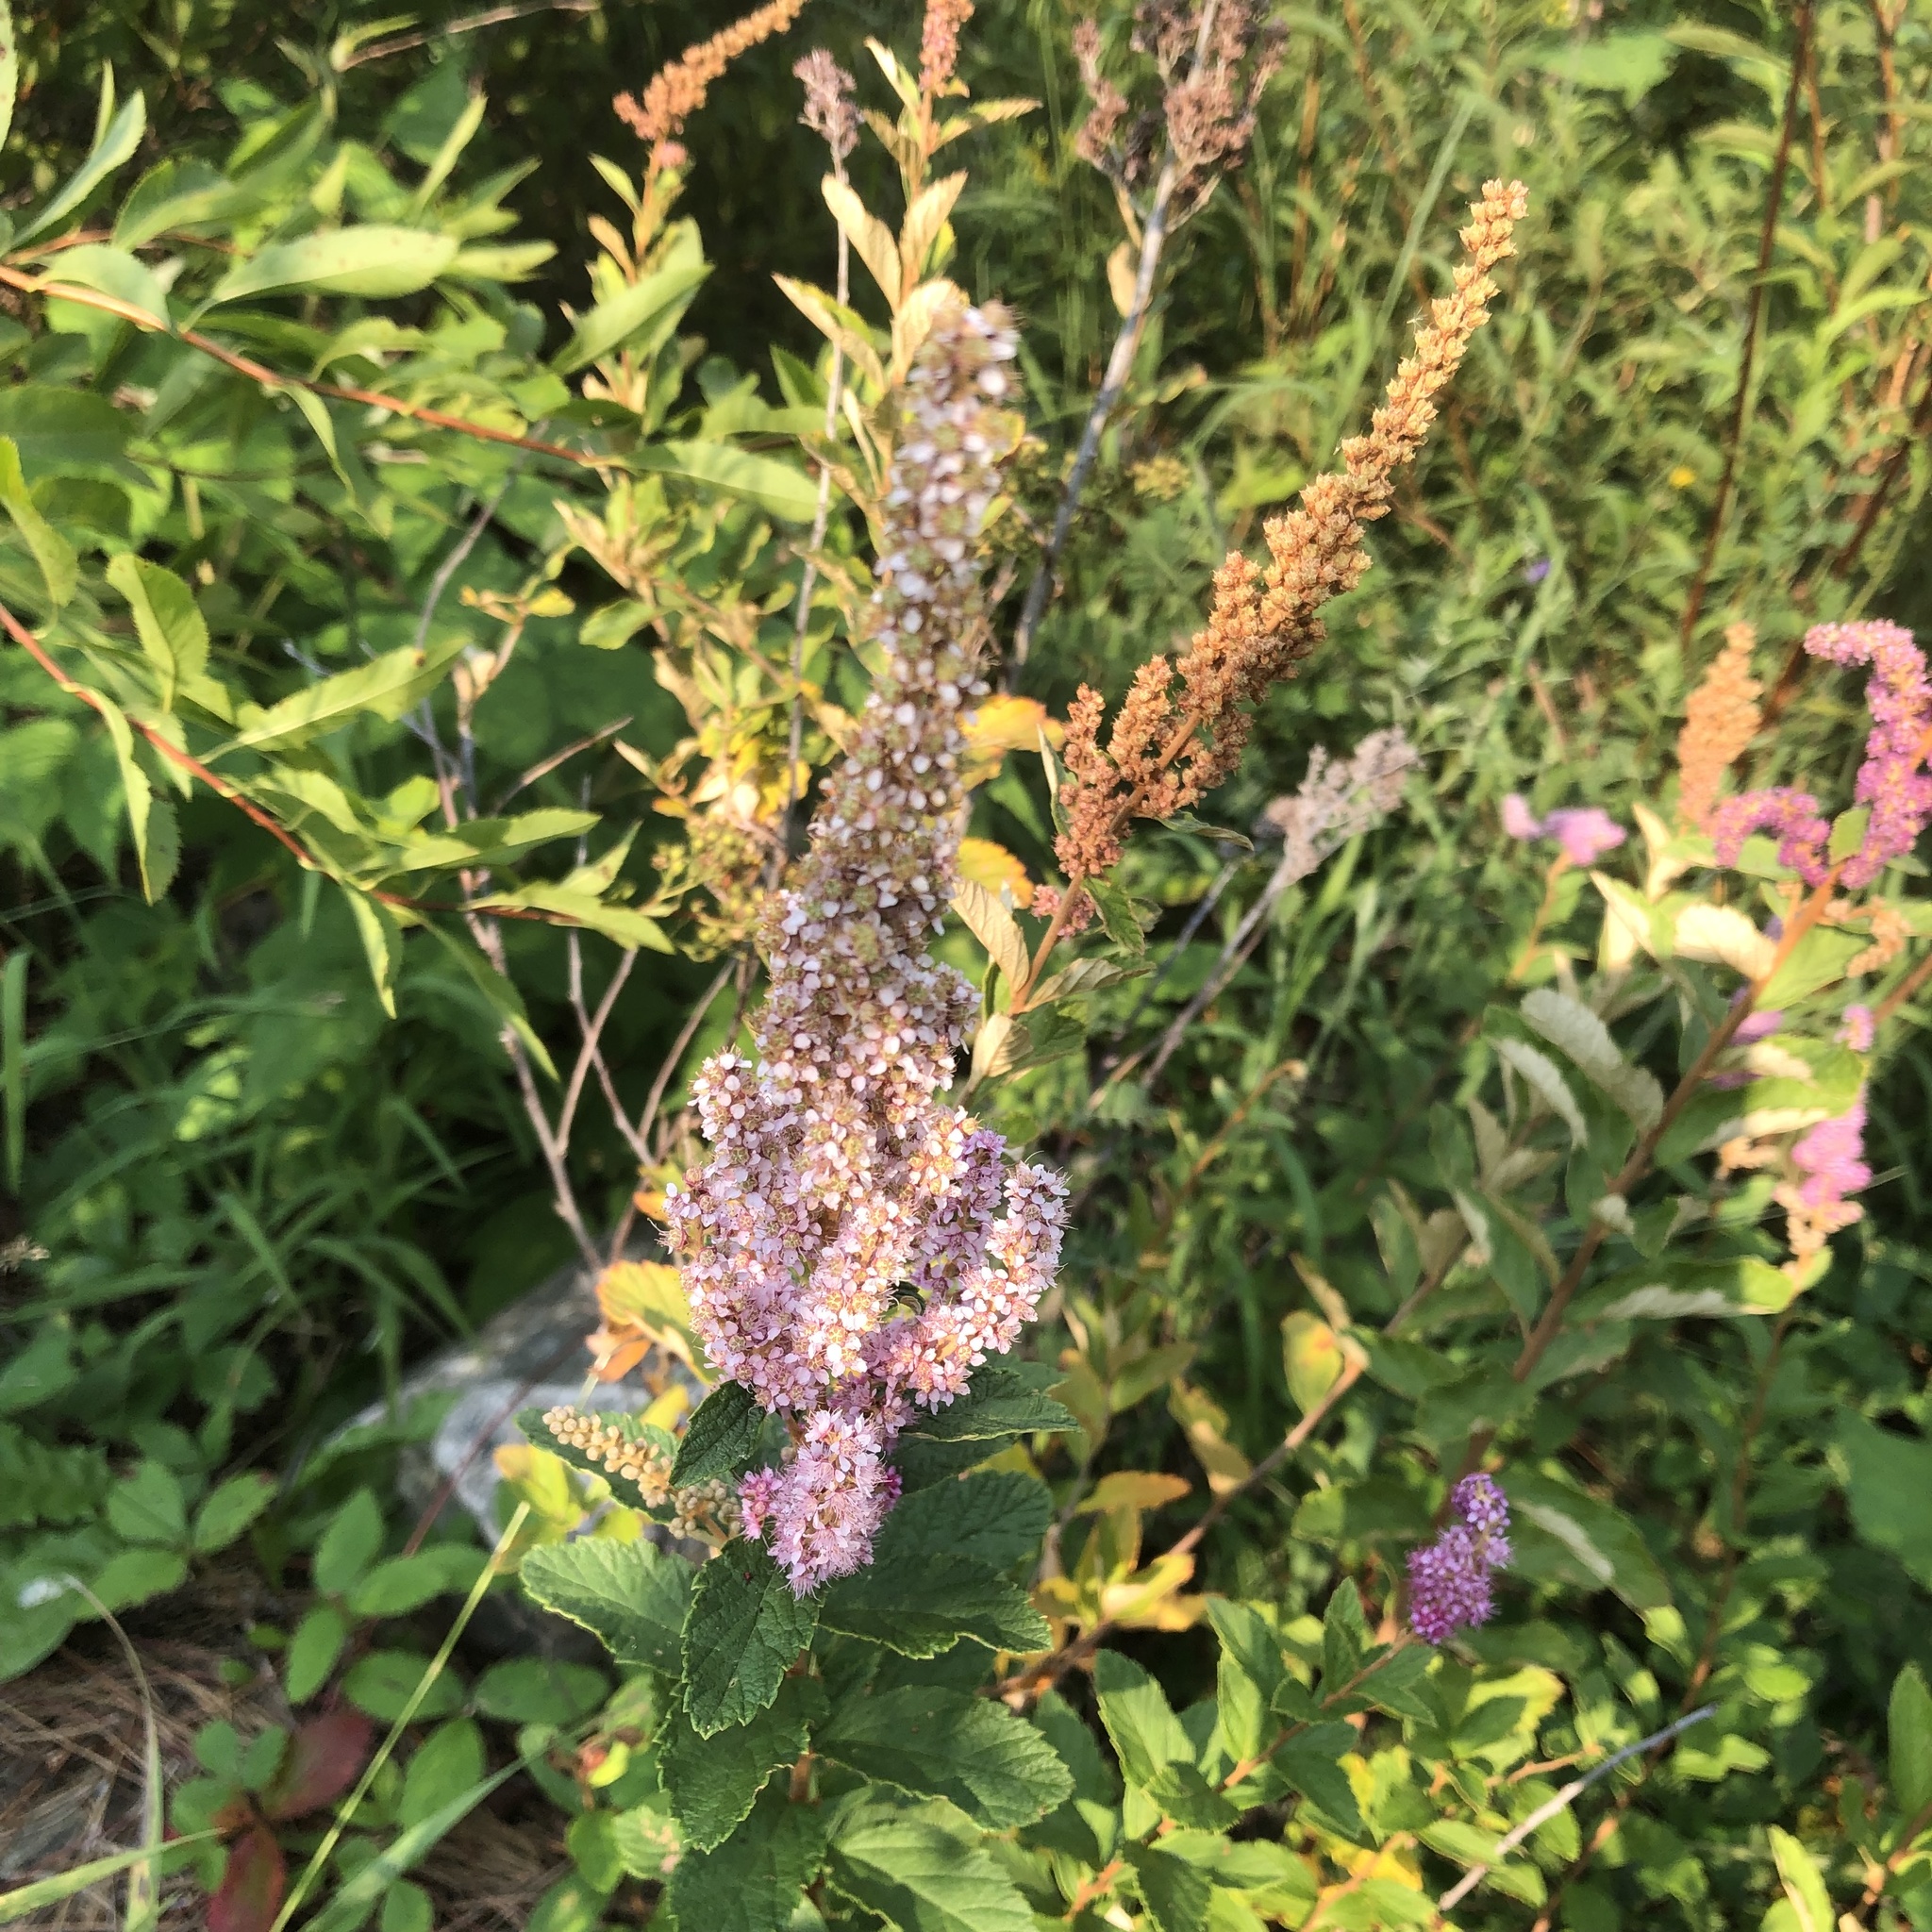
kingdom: Plantae
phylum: Tracheophyta
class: Magnoliopsida
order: Rosales
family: Rosaceae
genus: Spiraea
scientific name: Spiraea tomentosa
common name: Hardhack
